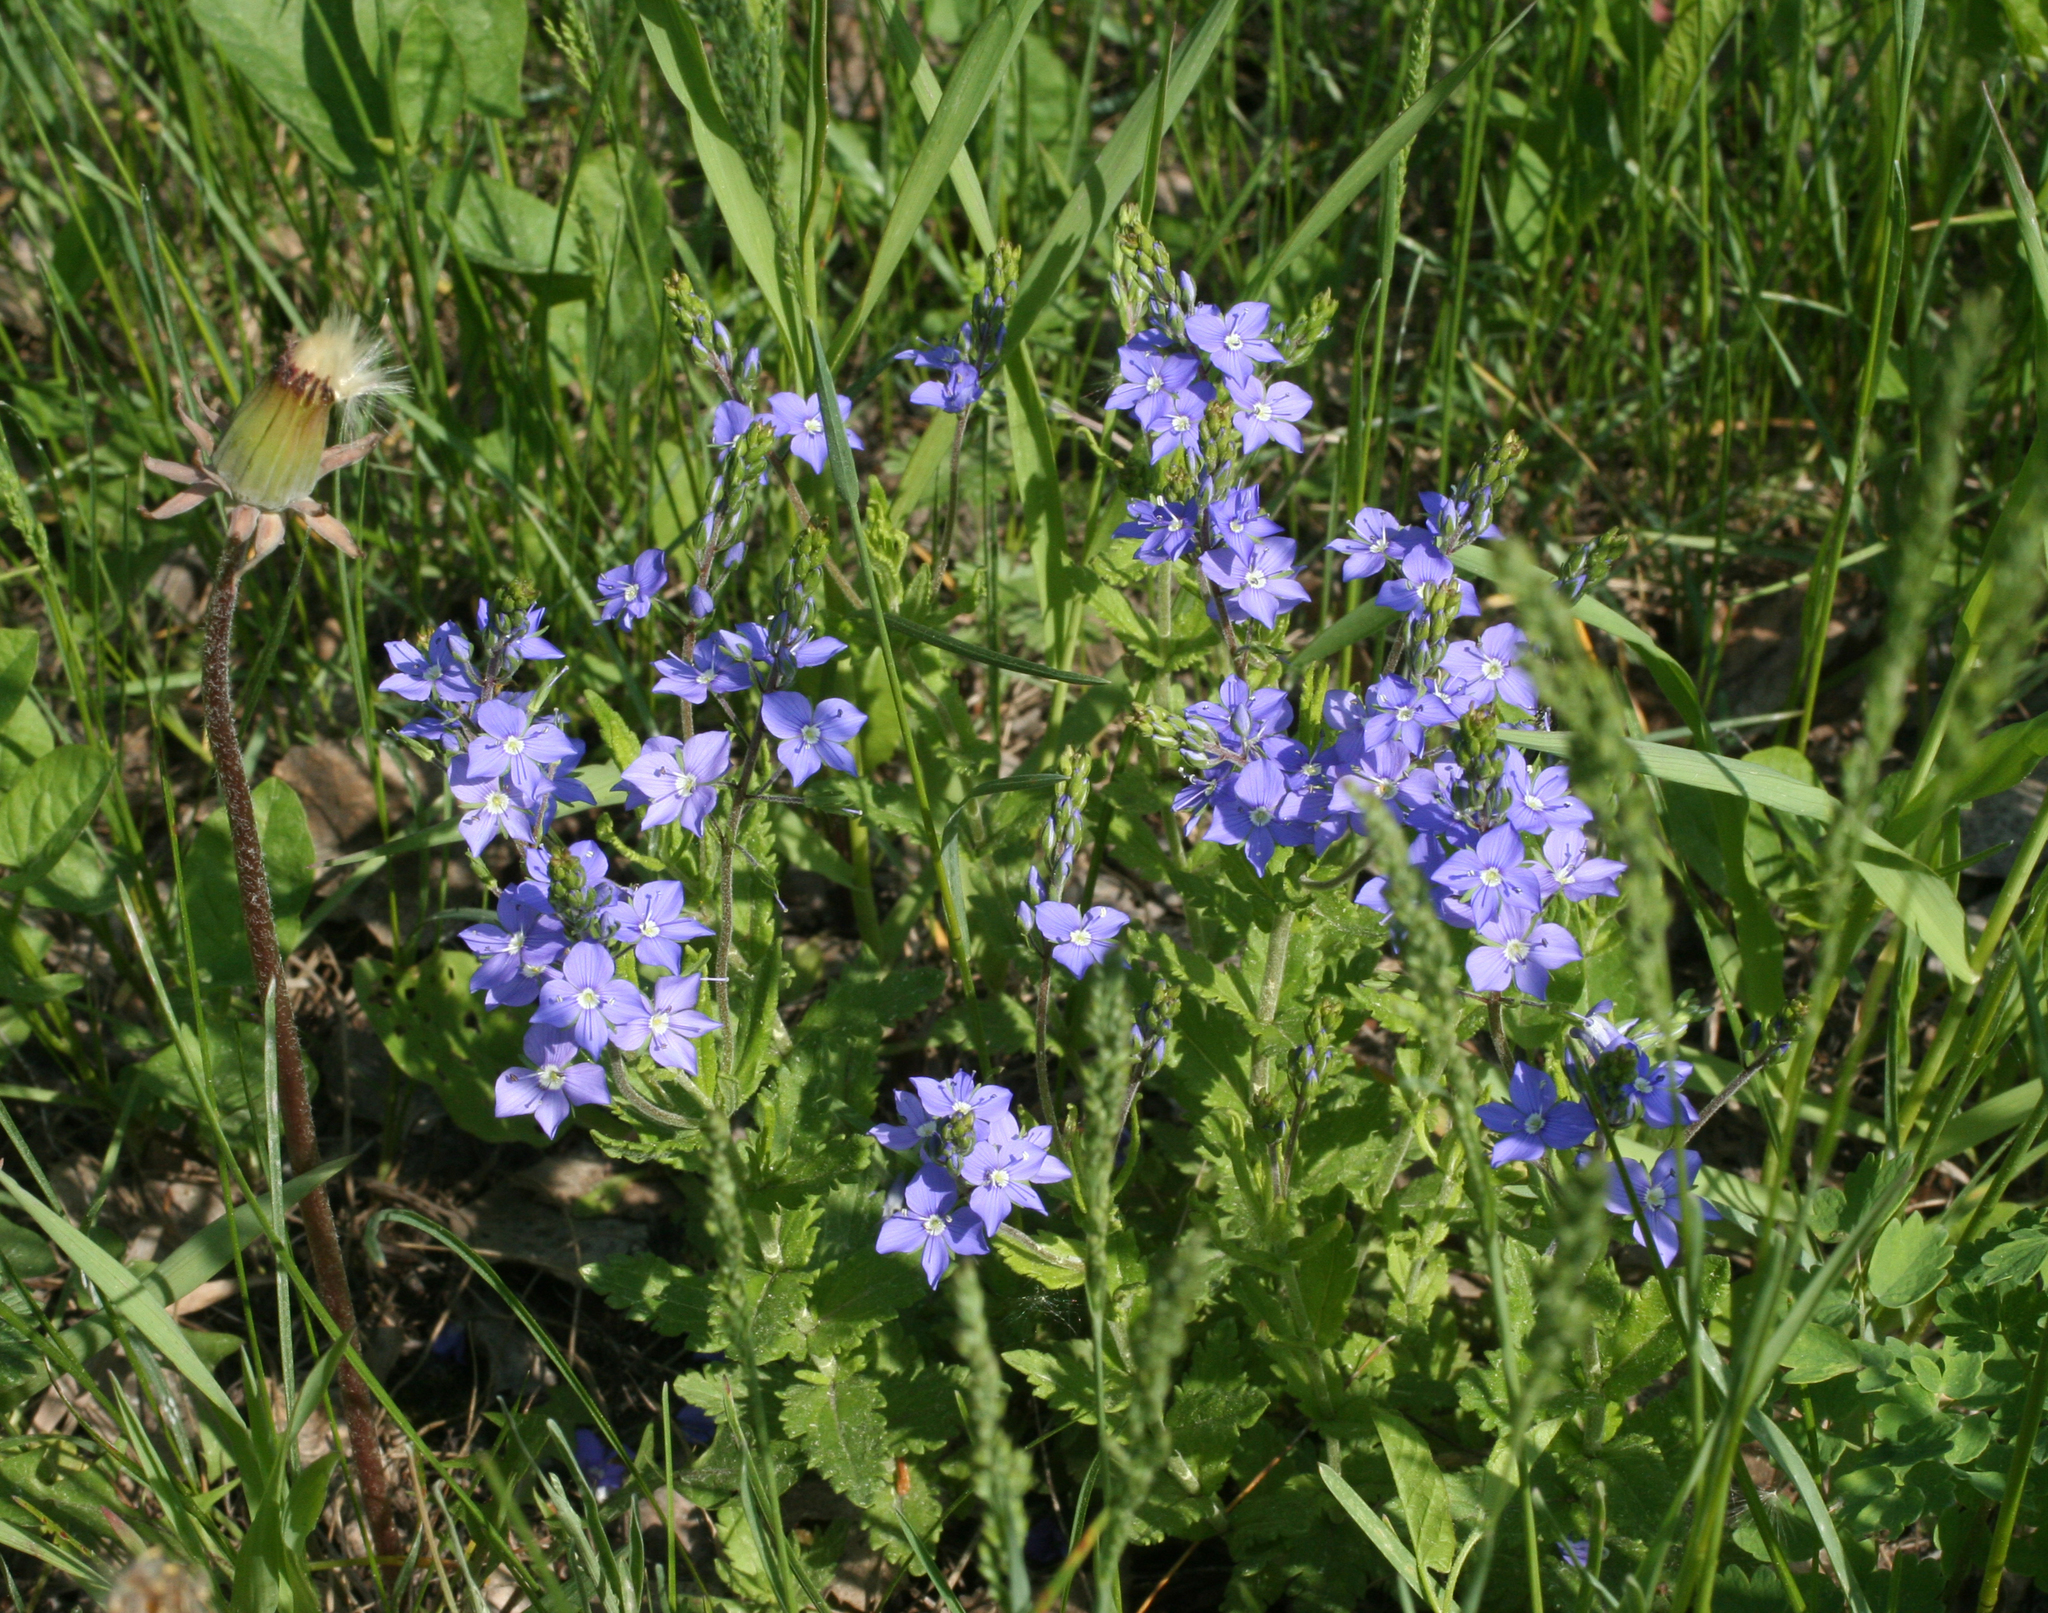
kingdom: Plantae
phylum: Tracheophyta
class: Magnoliopsida
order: Lamiales
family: Plantaginaceae
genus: Veronica
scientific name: Veronica krylovii
